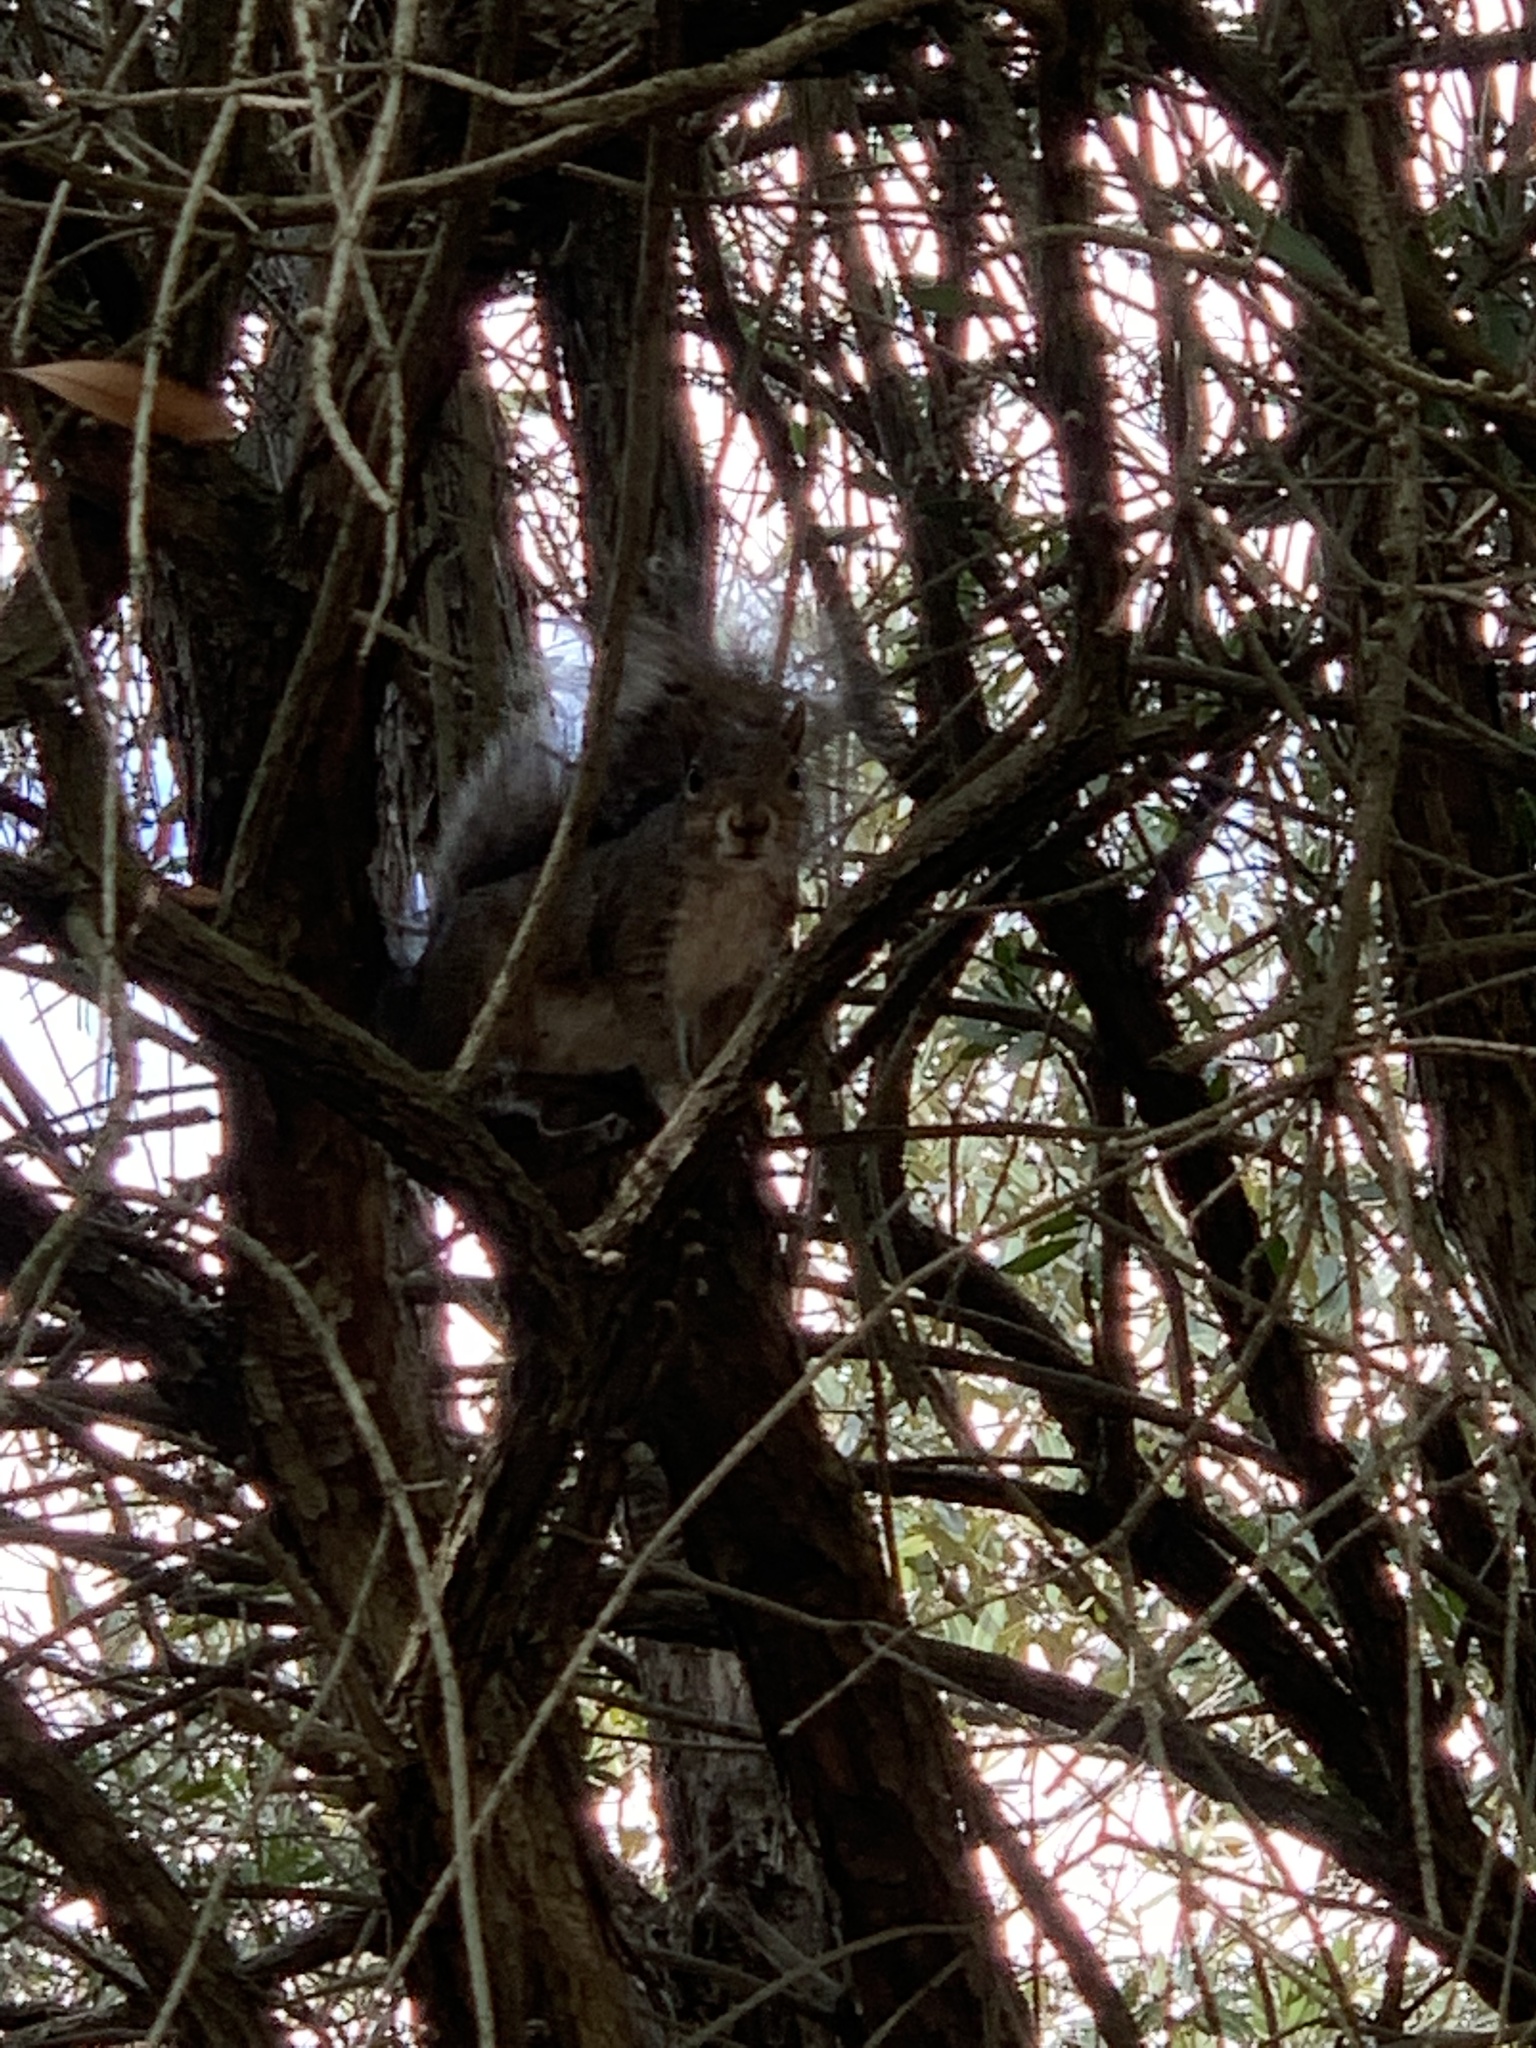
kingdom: Animalia
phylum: Chordata
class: Mammalia
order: Rodentia
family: Sciuridae
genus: Sciurus
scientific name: Sciurus carolinensis
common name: Eastern gray squirrel
